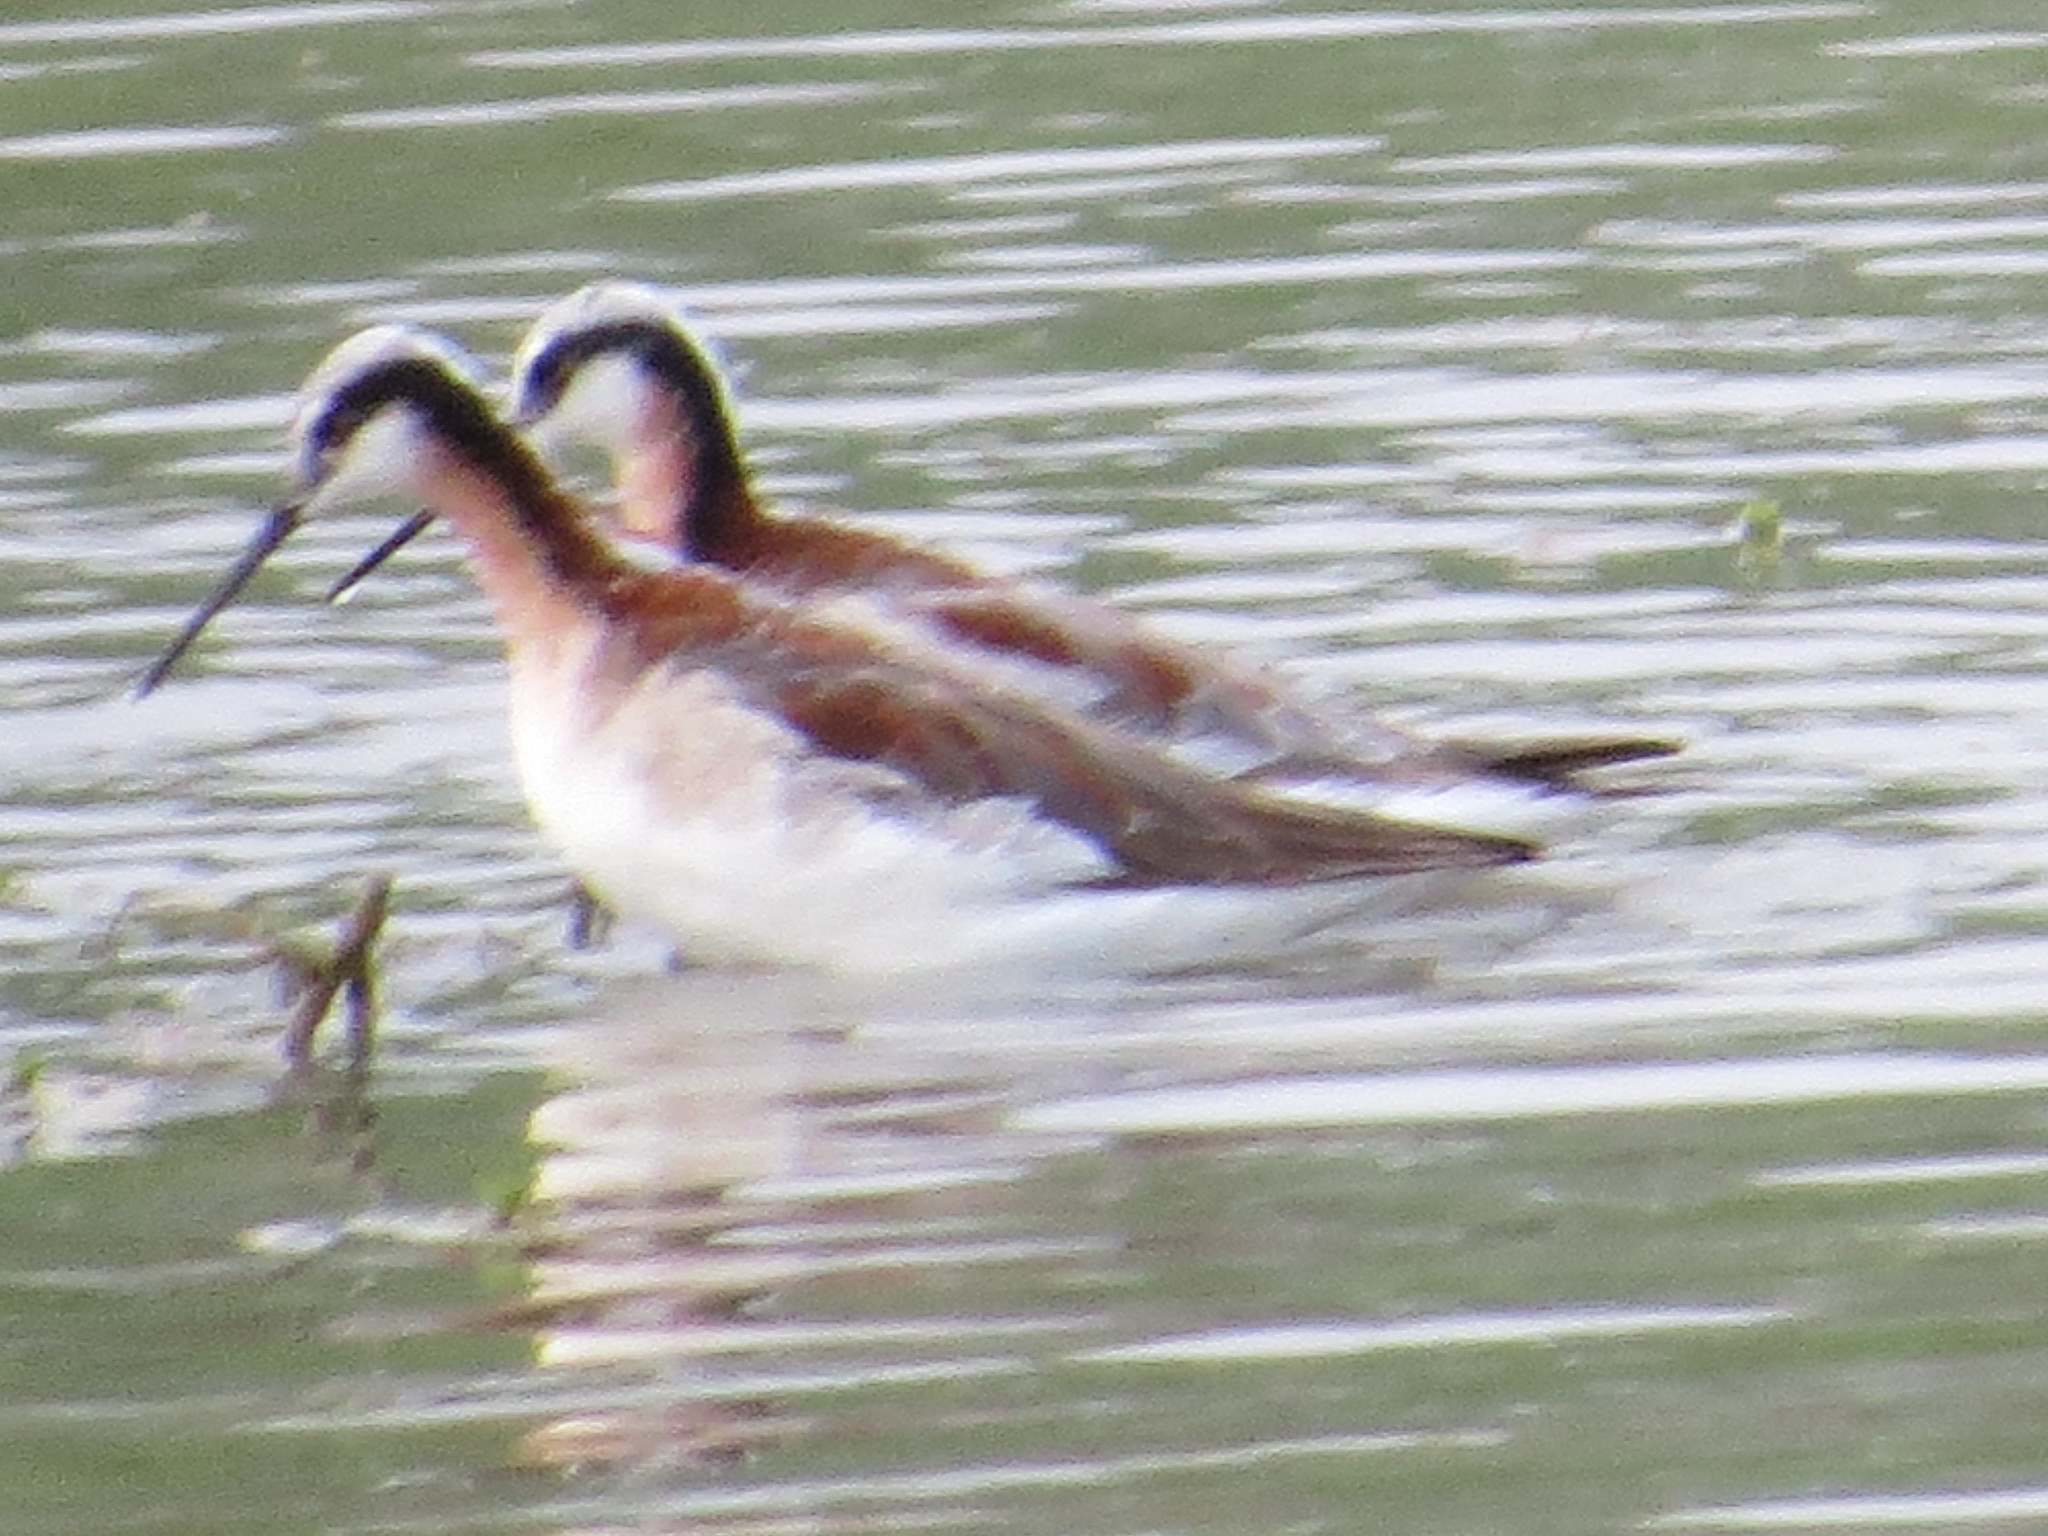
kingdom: Animalia
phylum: Chordata
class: Aves
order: Charadriiformes
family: Scolopacidae
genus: Phalaropus
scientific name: Phalaropus tricolor
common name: Wilson's phalarope
